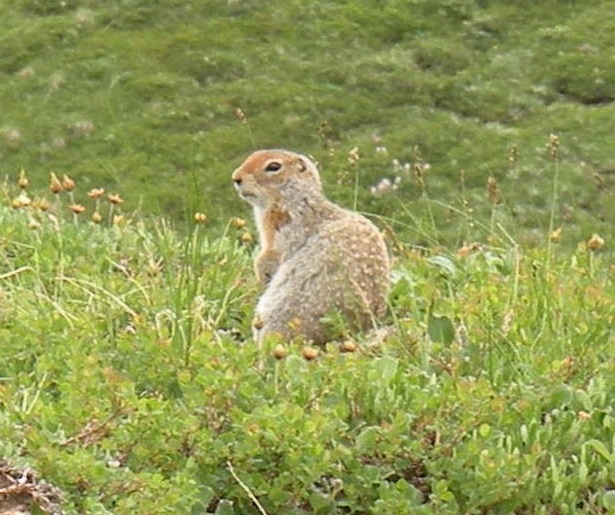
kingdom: Animalia
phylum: Chordata
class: Mammalia
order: Rodentia
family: Sciuridae
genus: Urocitellus
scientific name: Urocitellus parryii
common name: Arctic ground squirrel
